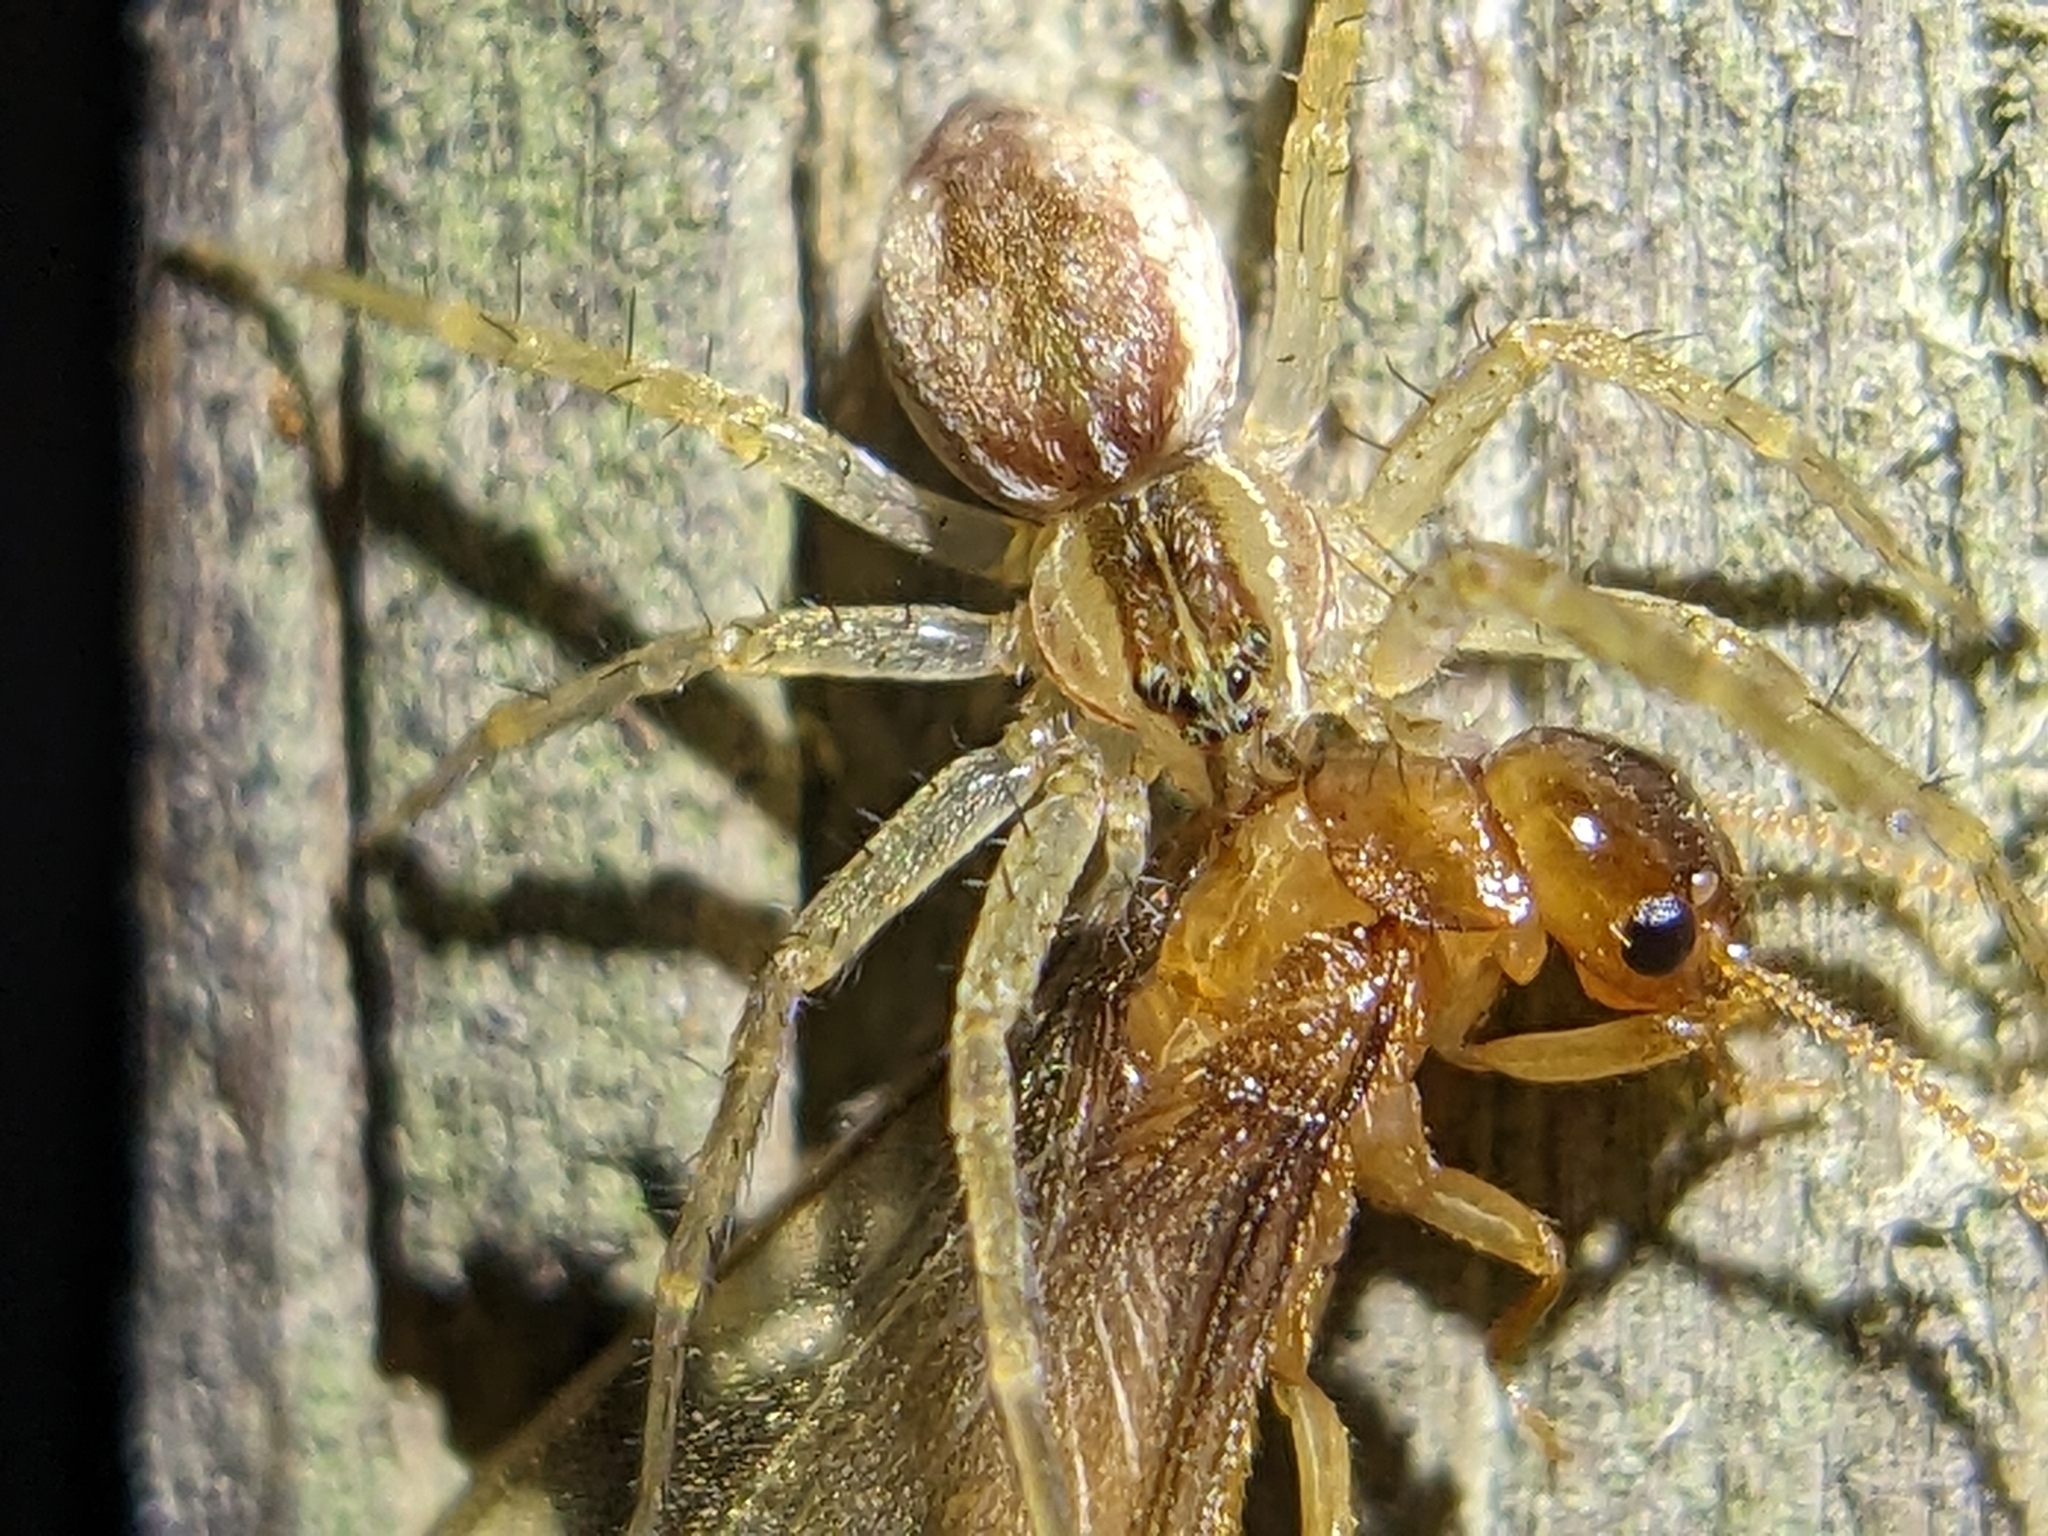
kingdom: Animalia
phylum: Arthropoda
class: Insecta
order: Blattodea
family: Rhinotermitidae
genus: Coptotermes
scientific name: Coptotermes formosanus
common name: Formosan termite
